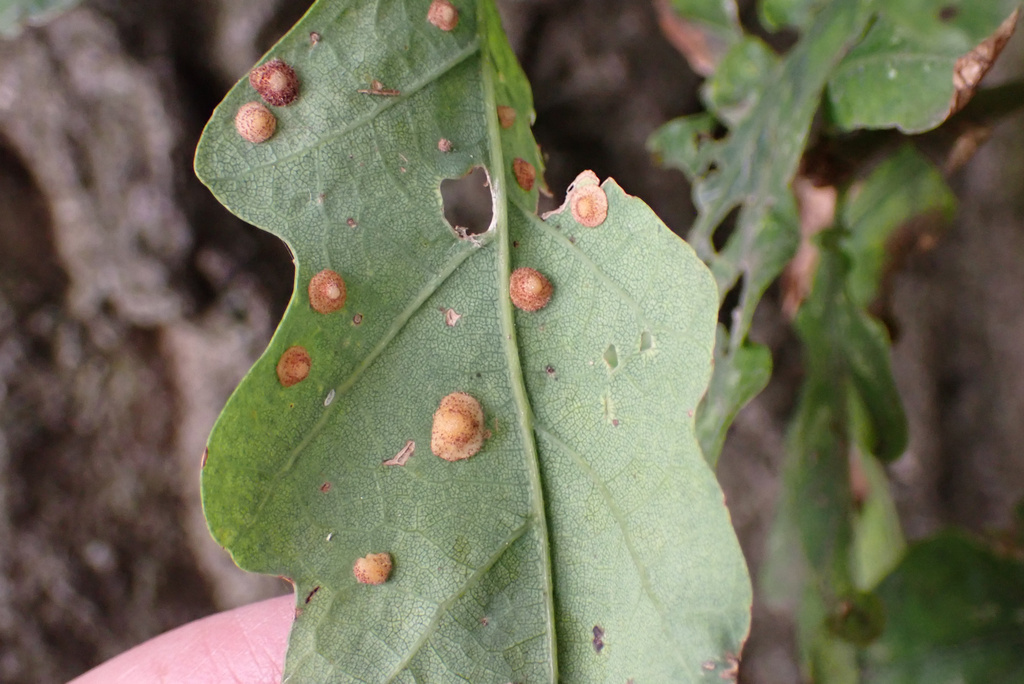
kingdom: Animalia
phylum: Arthropoda
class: Insecta
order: Hymenoptera
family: Cynipidae
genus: Neuroterus
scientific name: Neuroterus quercusbaccarum
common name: Common spangle gall
